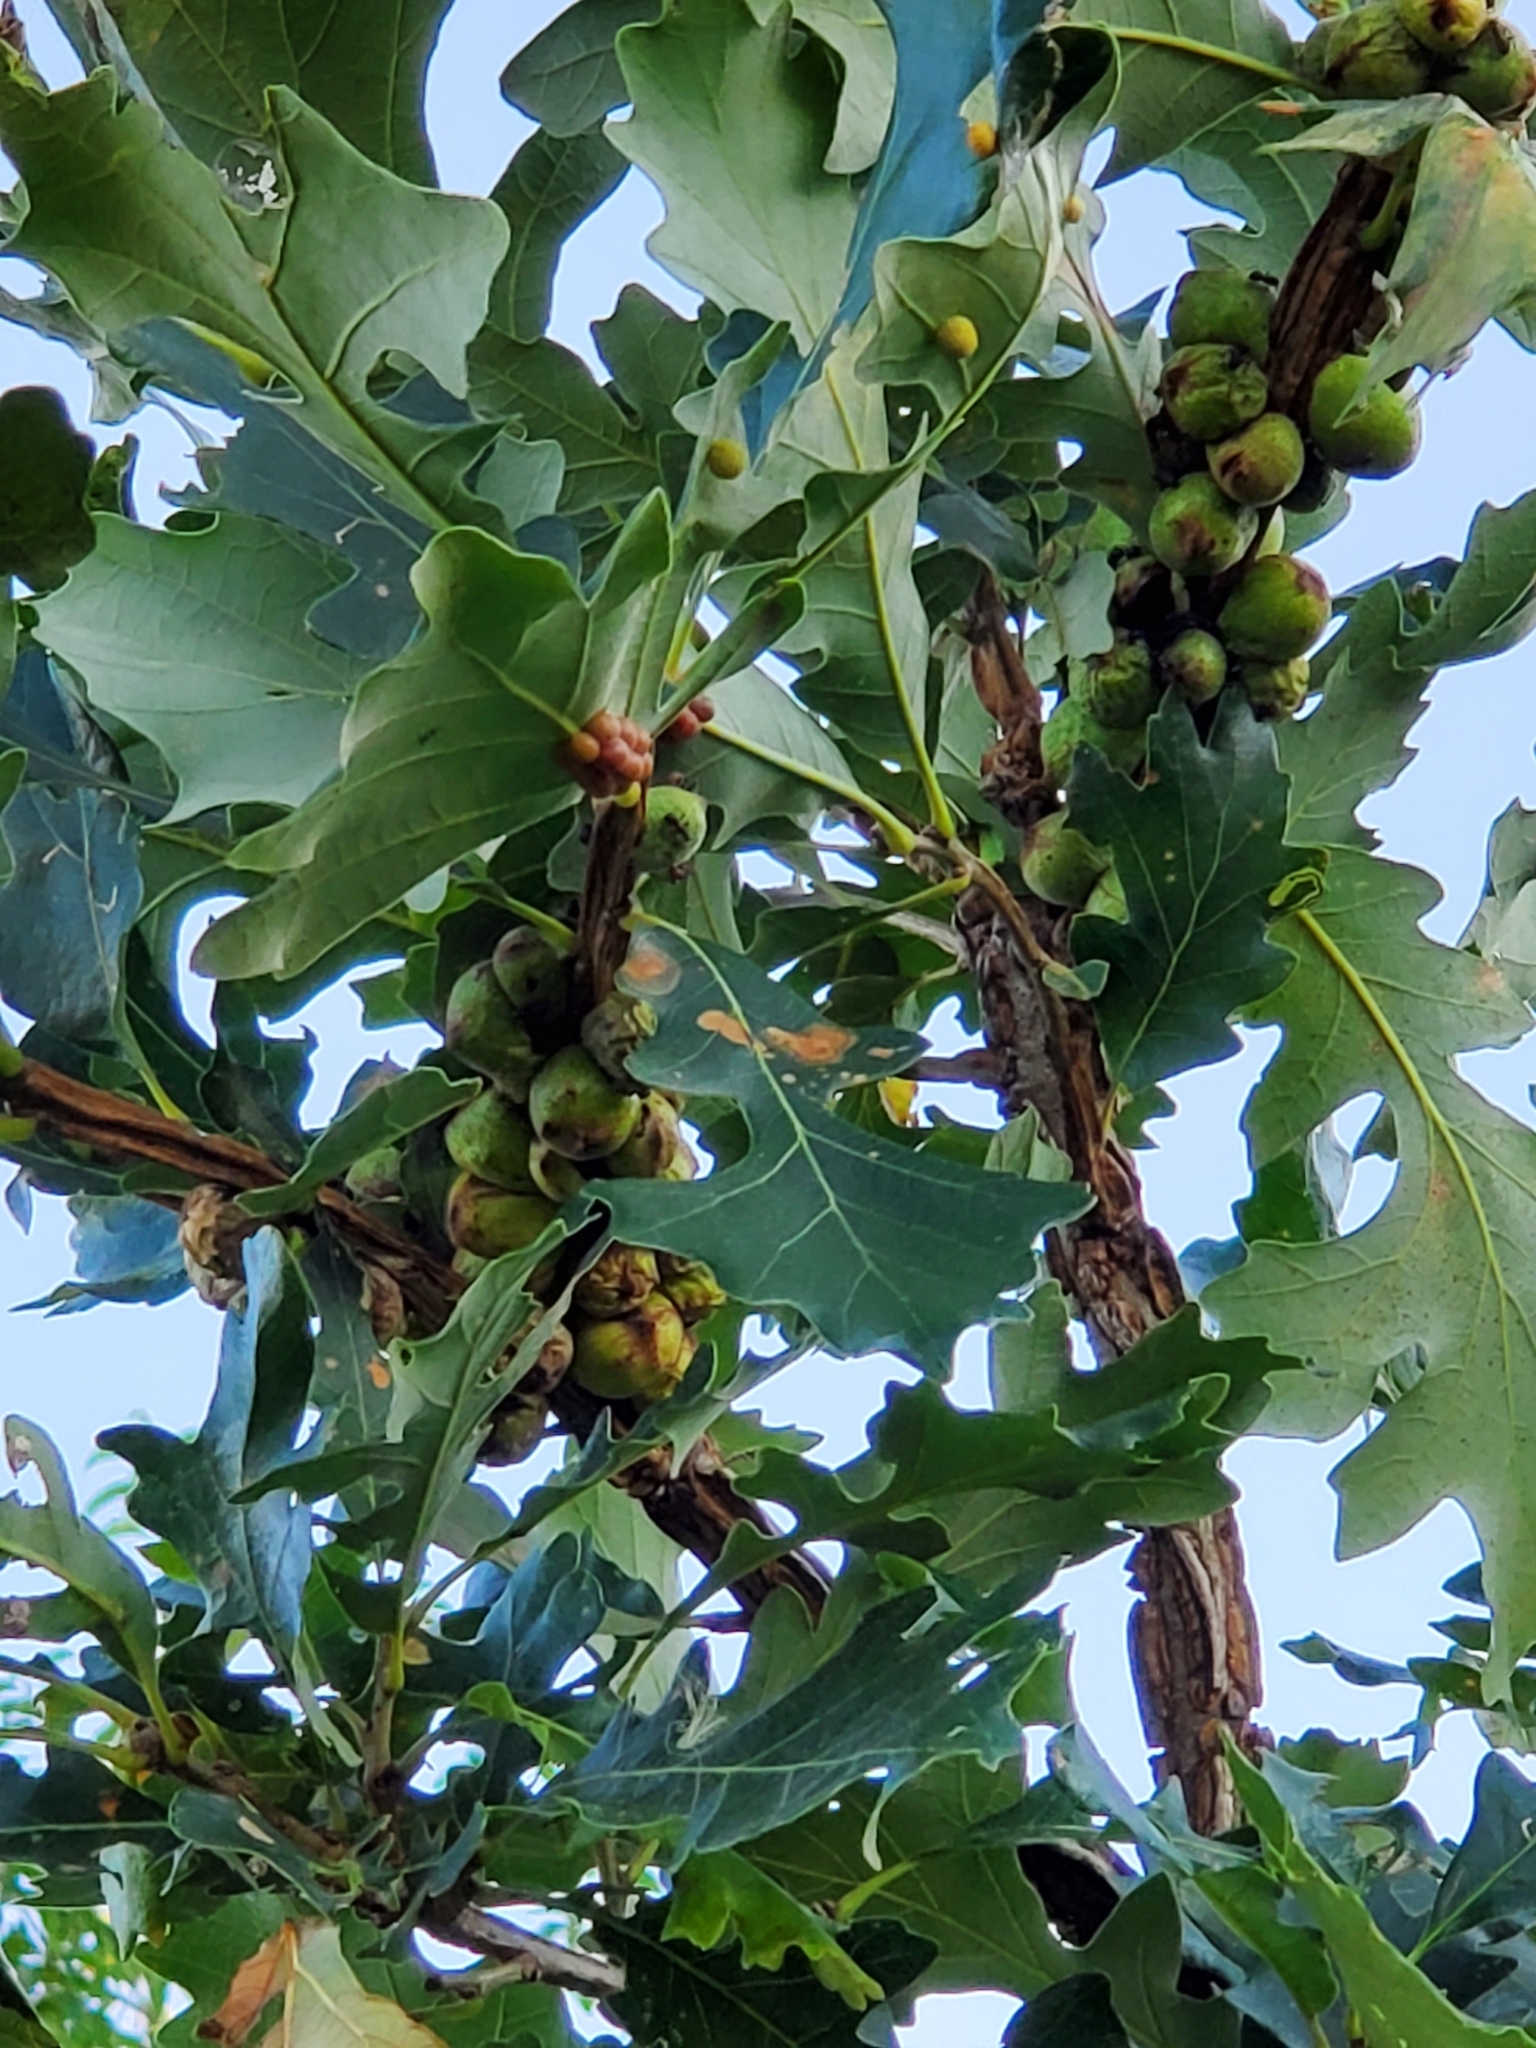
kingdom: Animalia
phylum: Arthropoda
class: Insecta
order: Hymenoptera
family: Cynipidae
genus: Disholcaspis
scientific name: Disholcaspis
